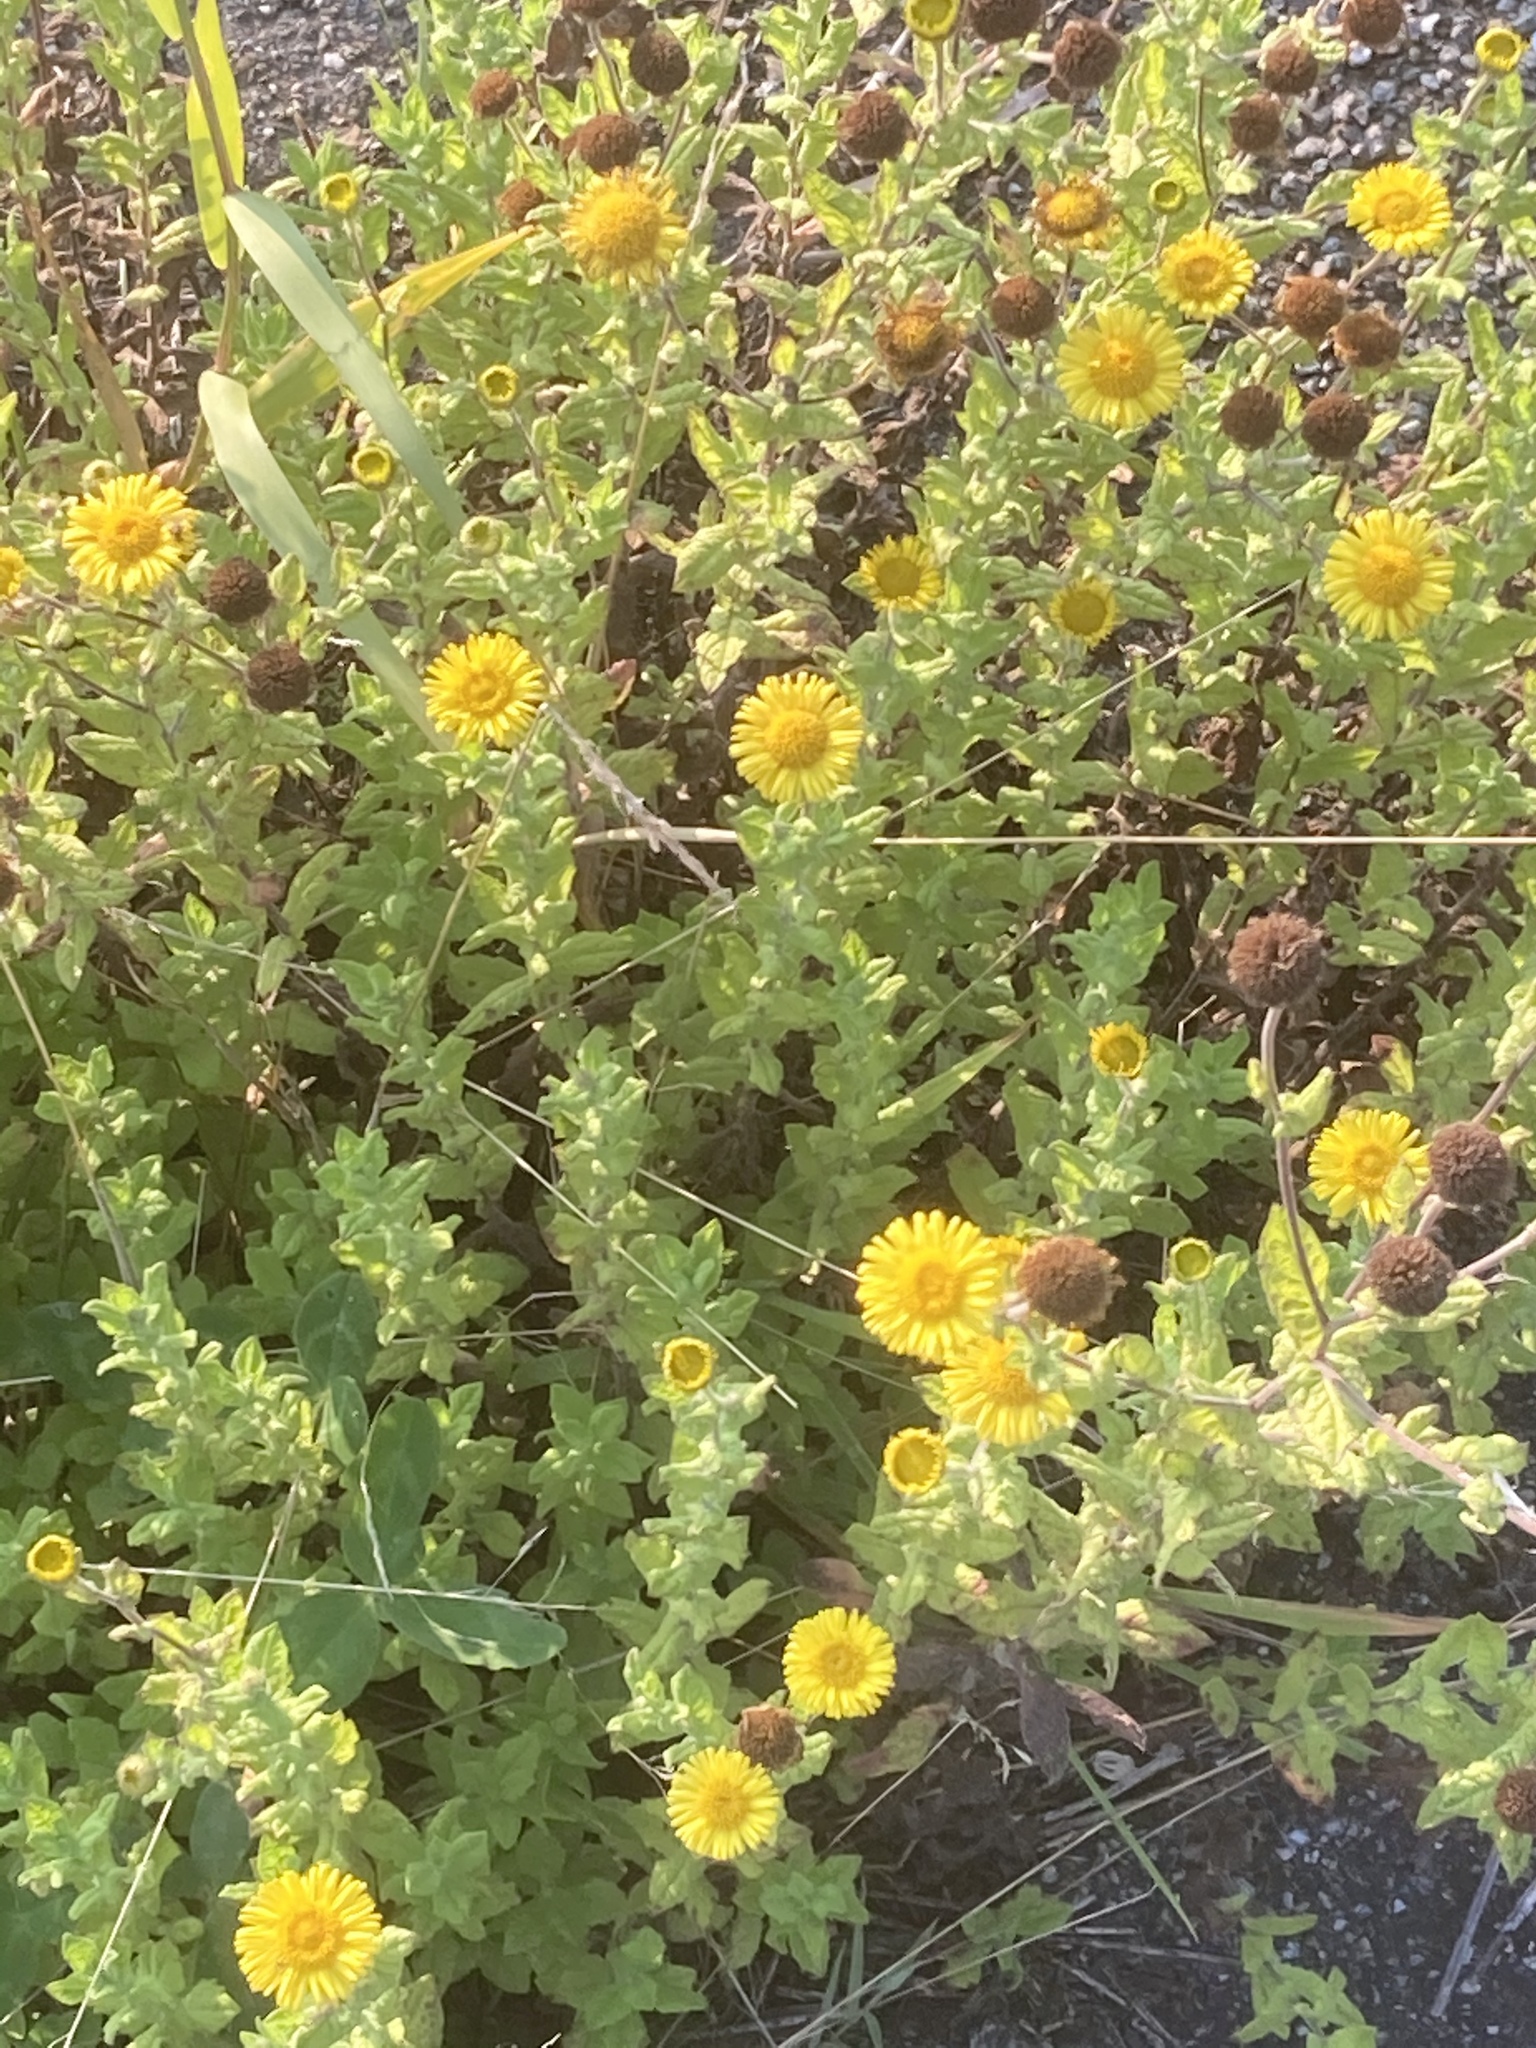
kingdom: Plantae
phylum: Tracheophyta
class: Magnoliopsida
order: Asterales
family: Asteraceae
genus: Pulicaria
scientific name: Pulicaria dysenterica
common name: Common fleabane
